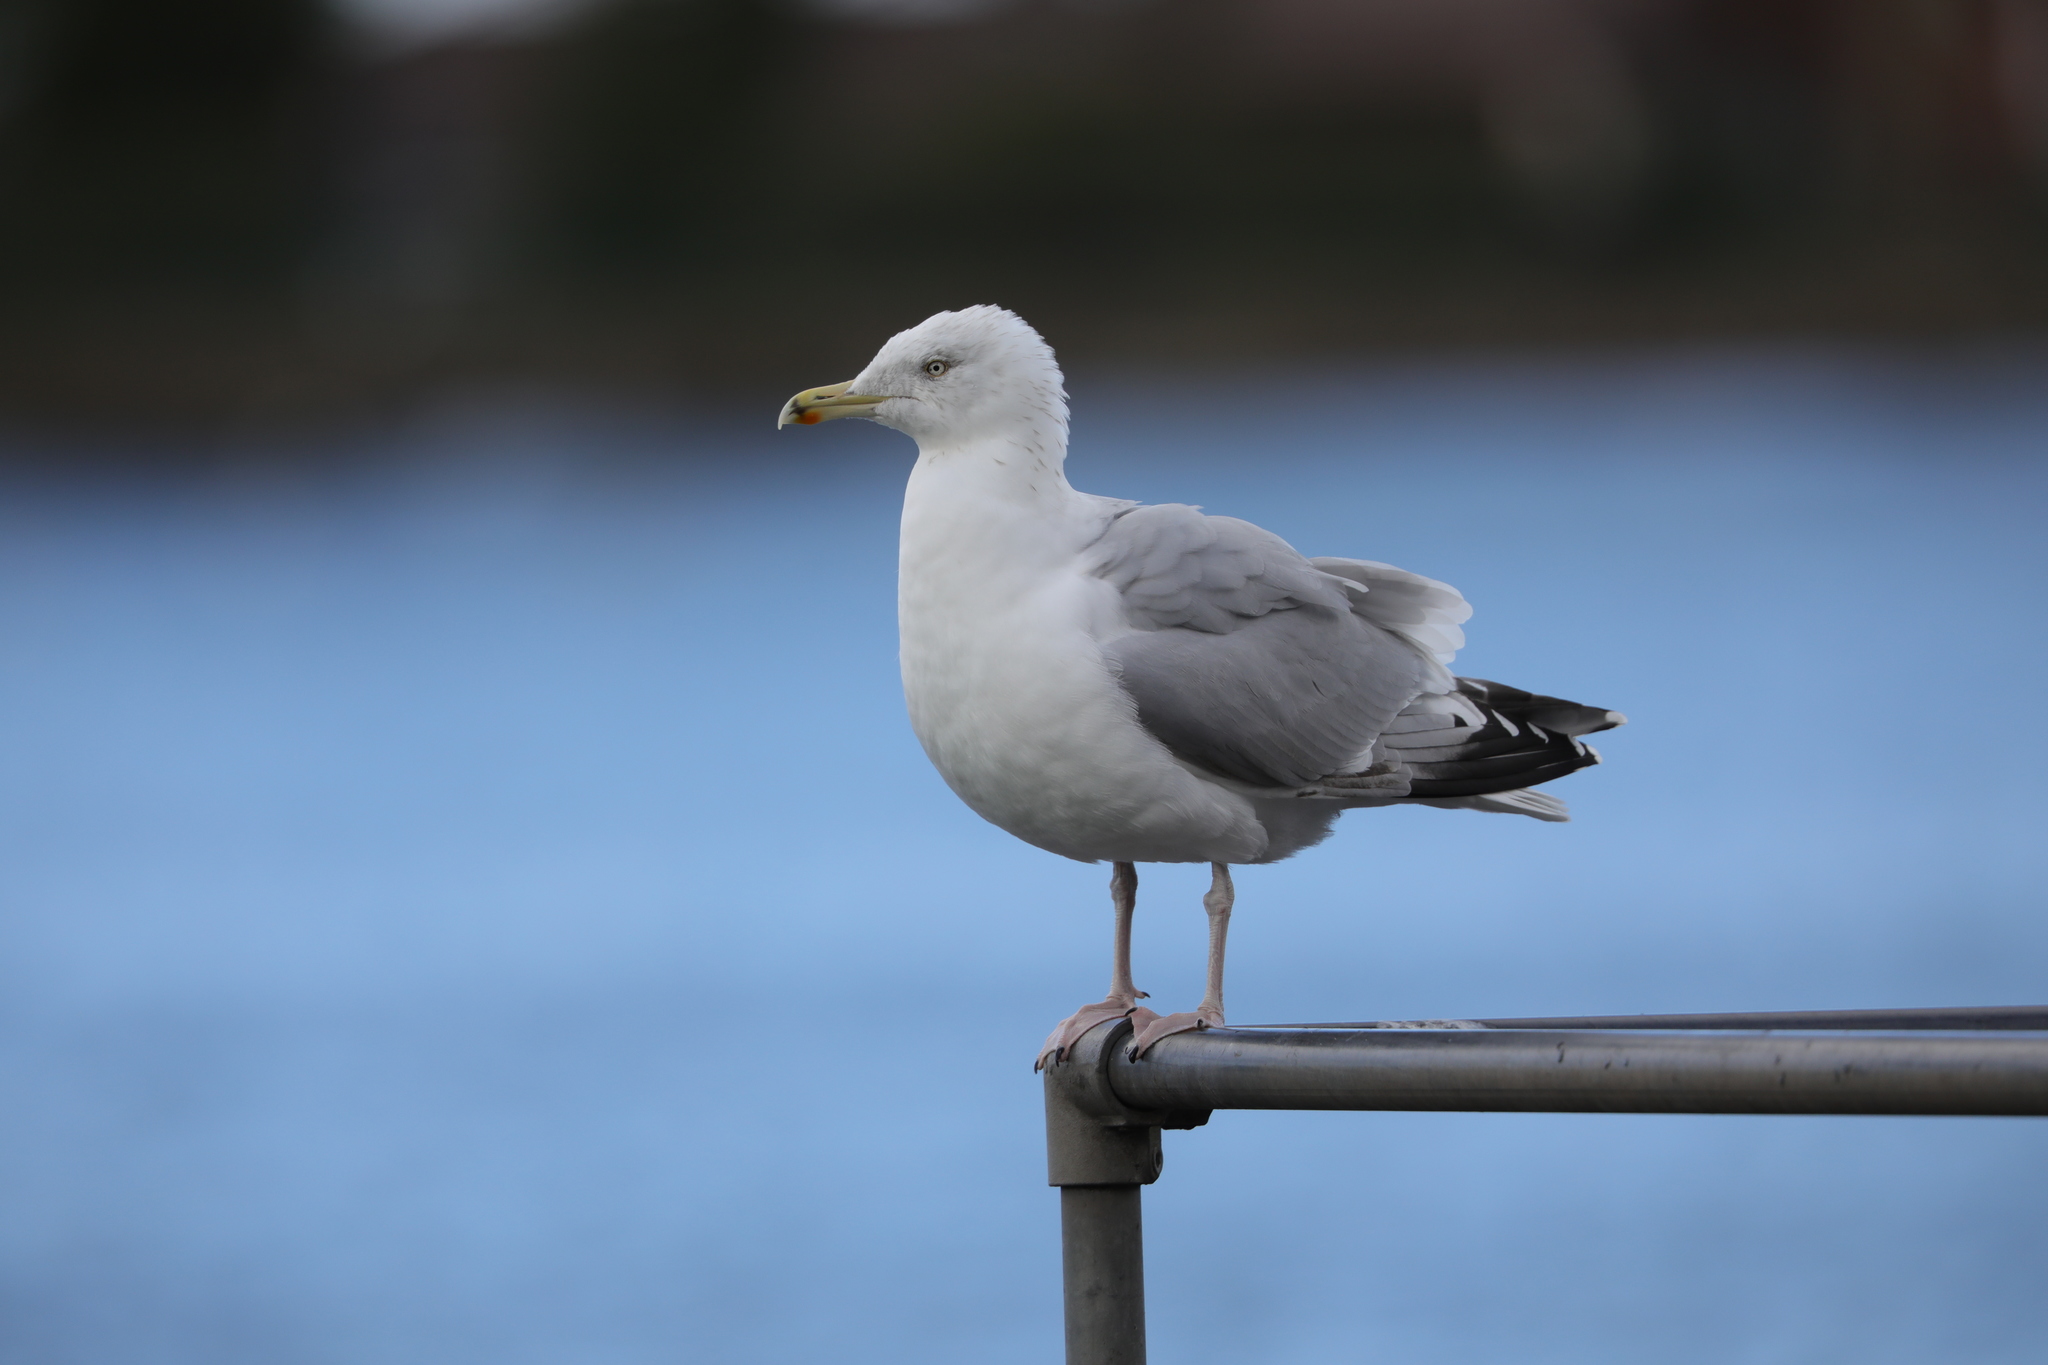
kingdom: Animalia
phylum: Chordata
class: Aves
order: Charadriiformes
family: Laridae
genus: Larus
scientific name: Larus argentatus
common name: Herring gull
